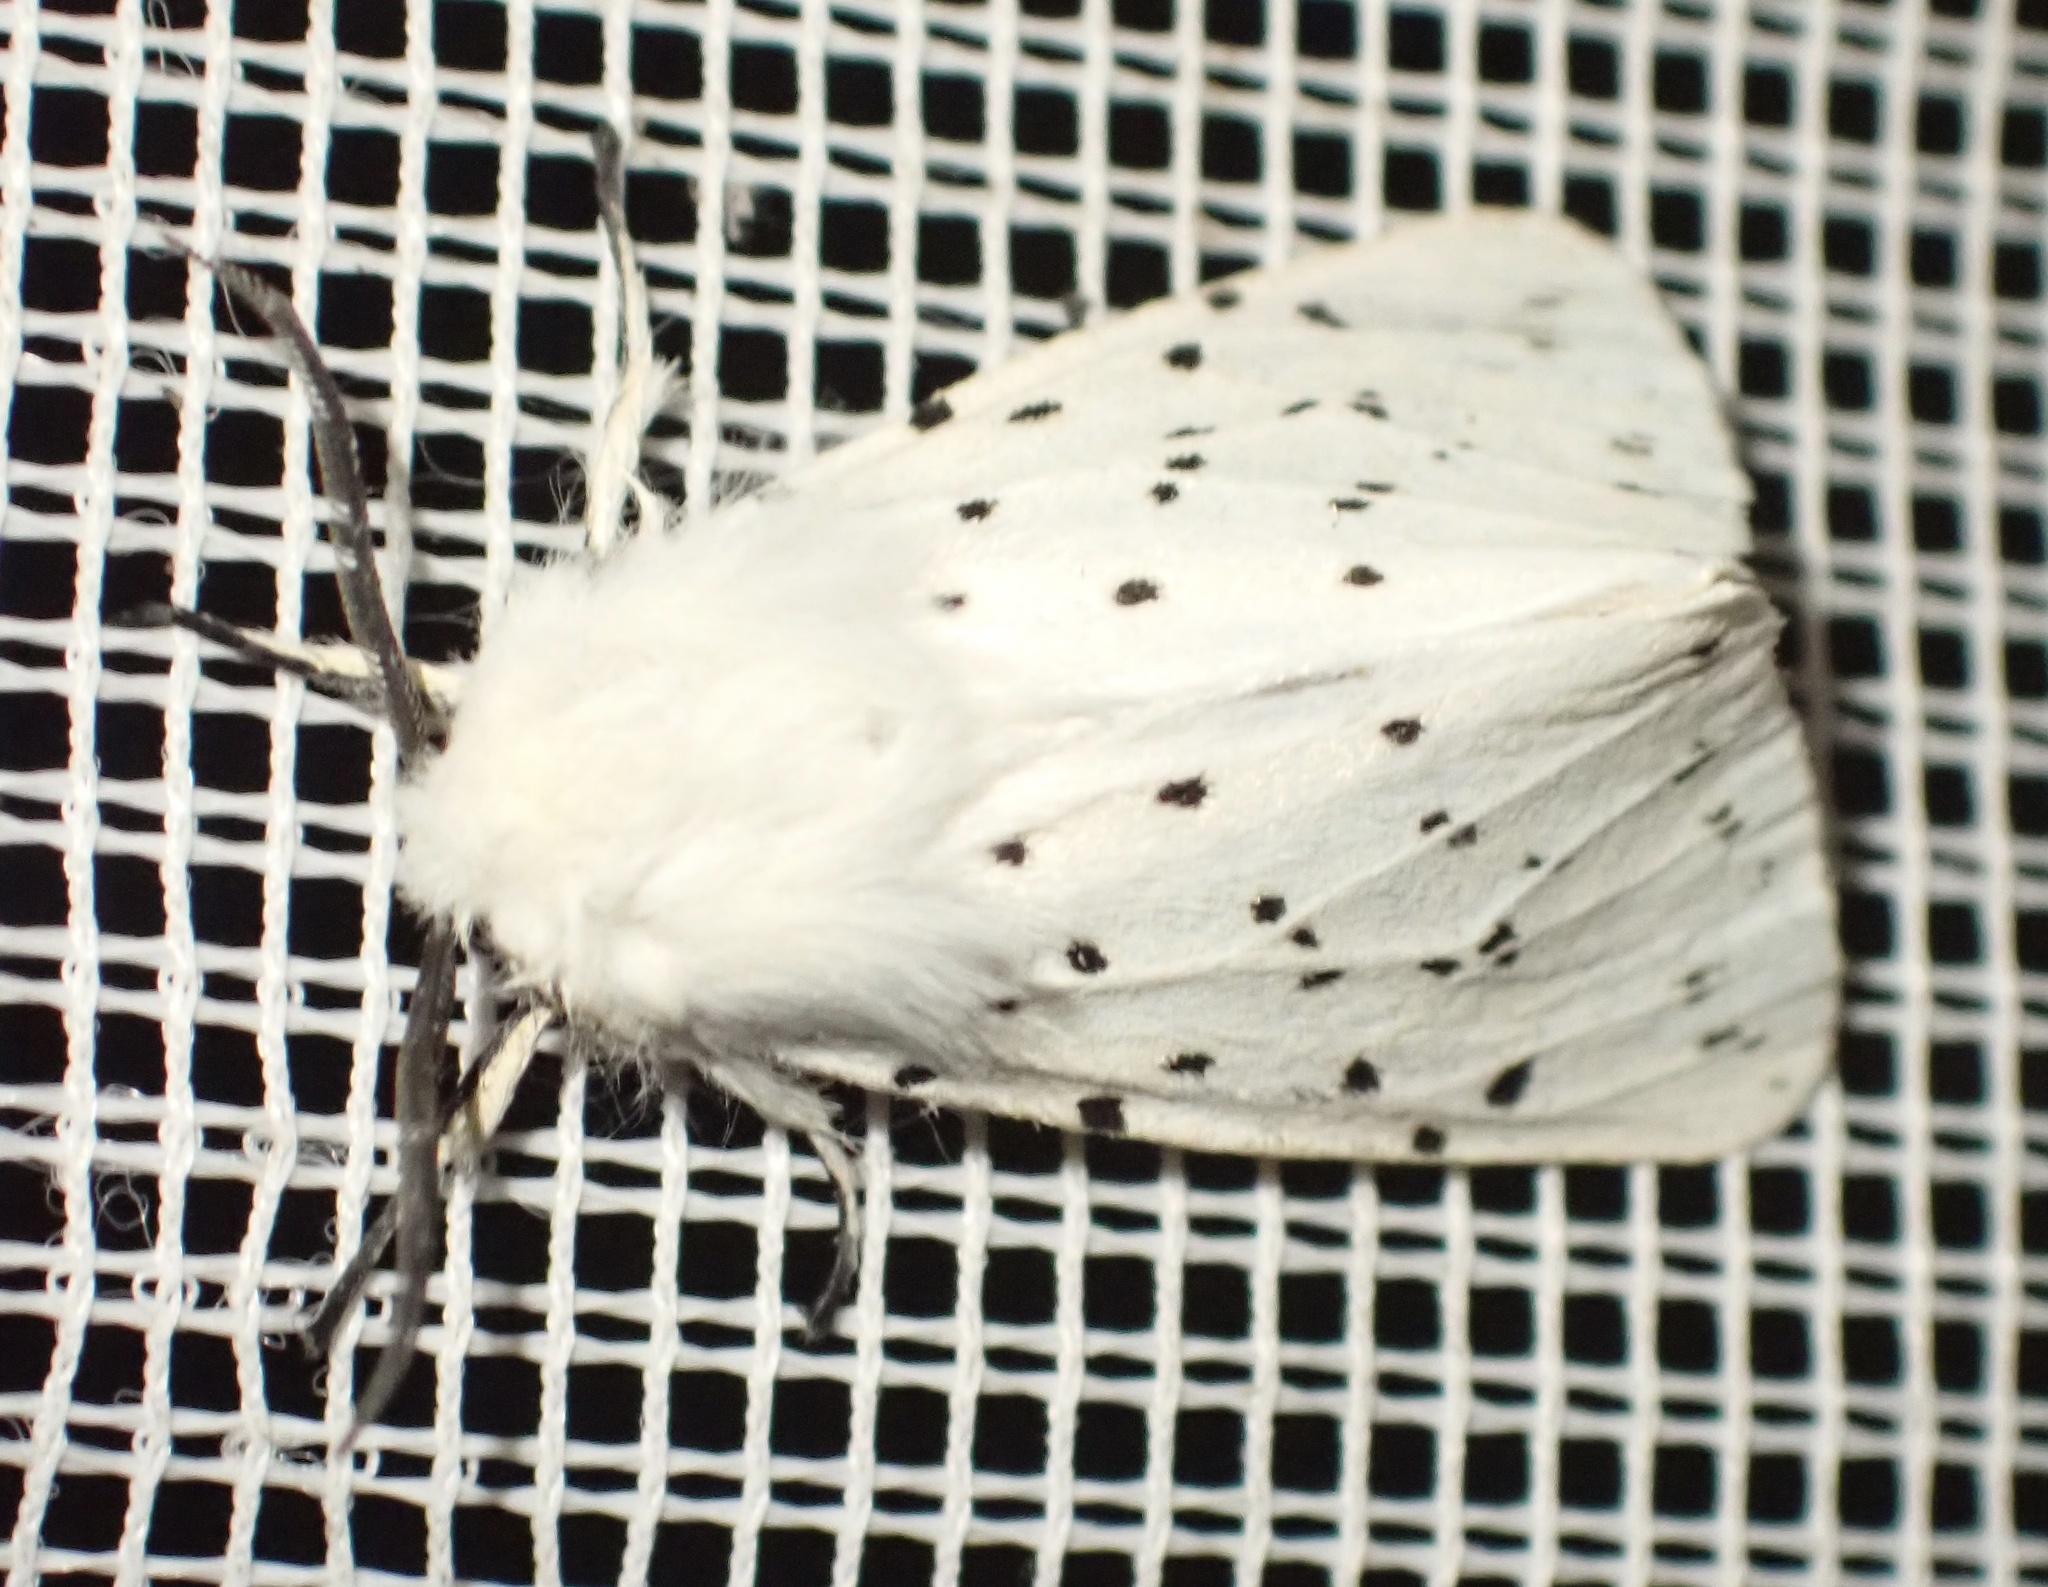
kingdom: Animalia
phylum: Arthropoda
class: Insecta
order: Lepidoptera
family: Erebidae
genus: Spilosoma
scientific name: Spilosoma lubricipeda
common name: White ermine
